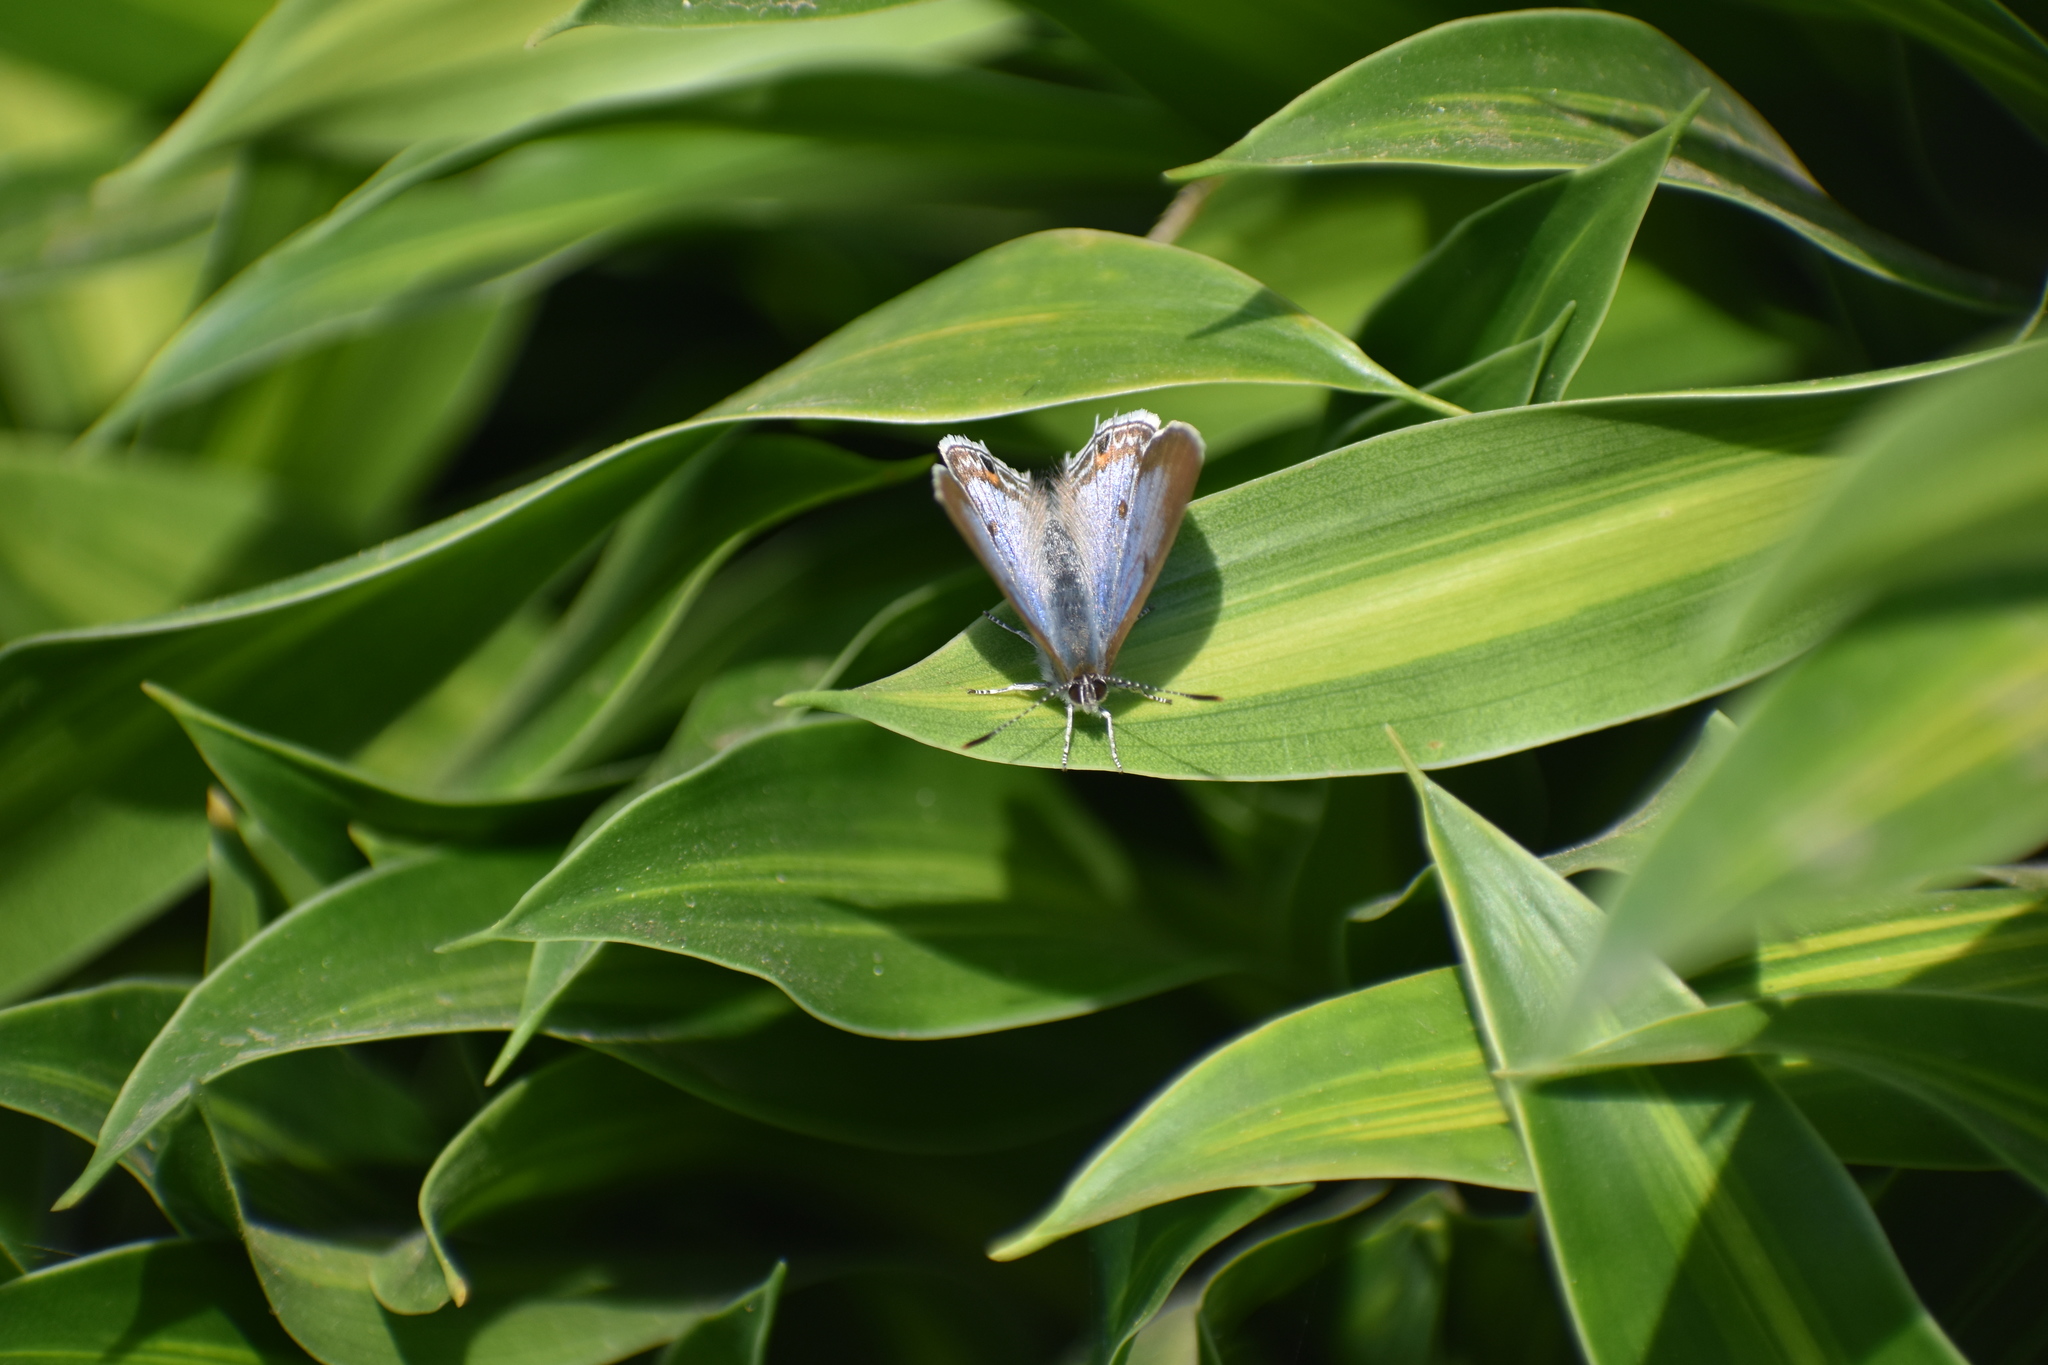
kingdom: Animalia
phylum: Arthropoda
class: Insecta
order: Lepidoptera
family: Lycaenidae
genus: Anthene
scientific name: Anthene livida
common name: Pale hairtail
